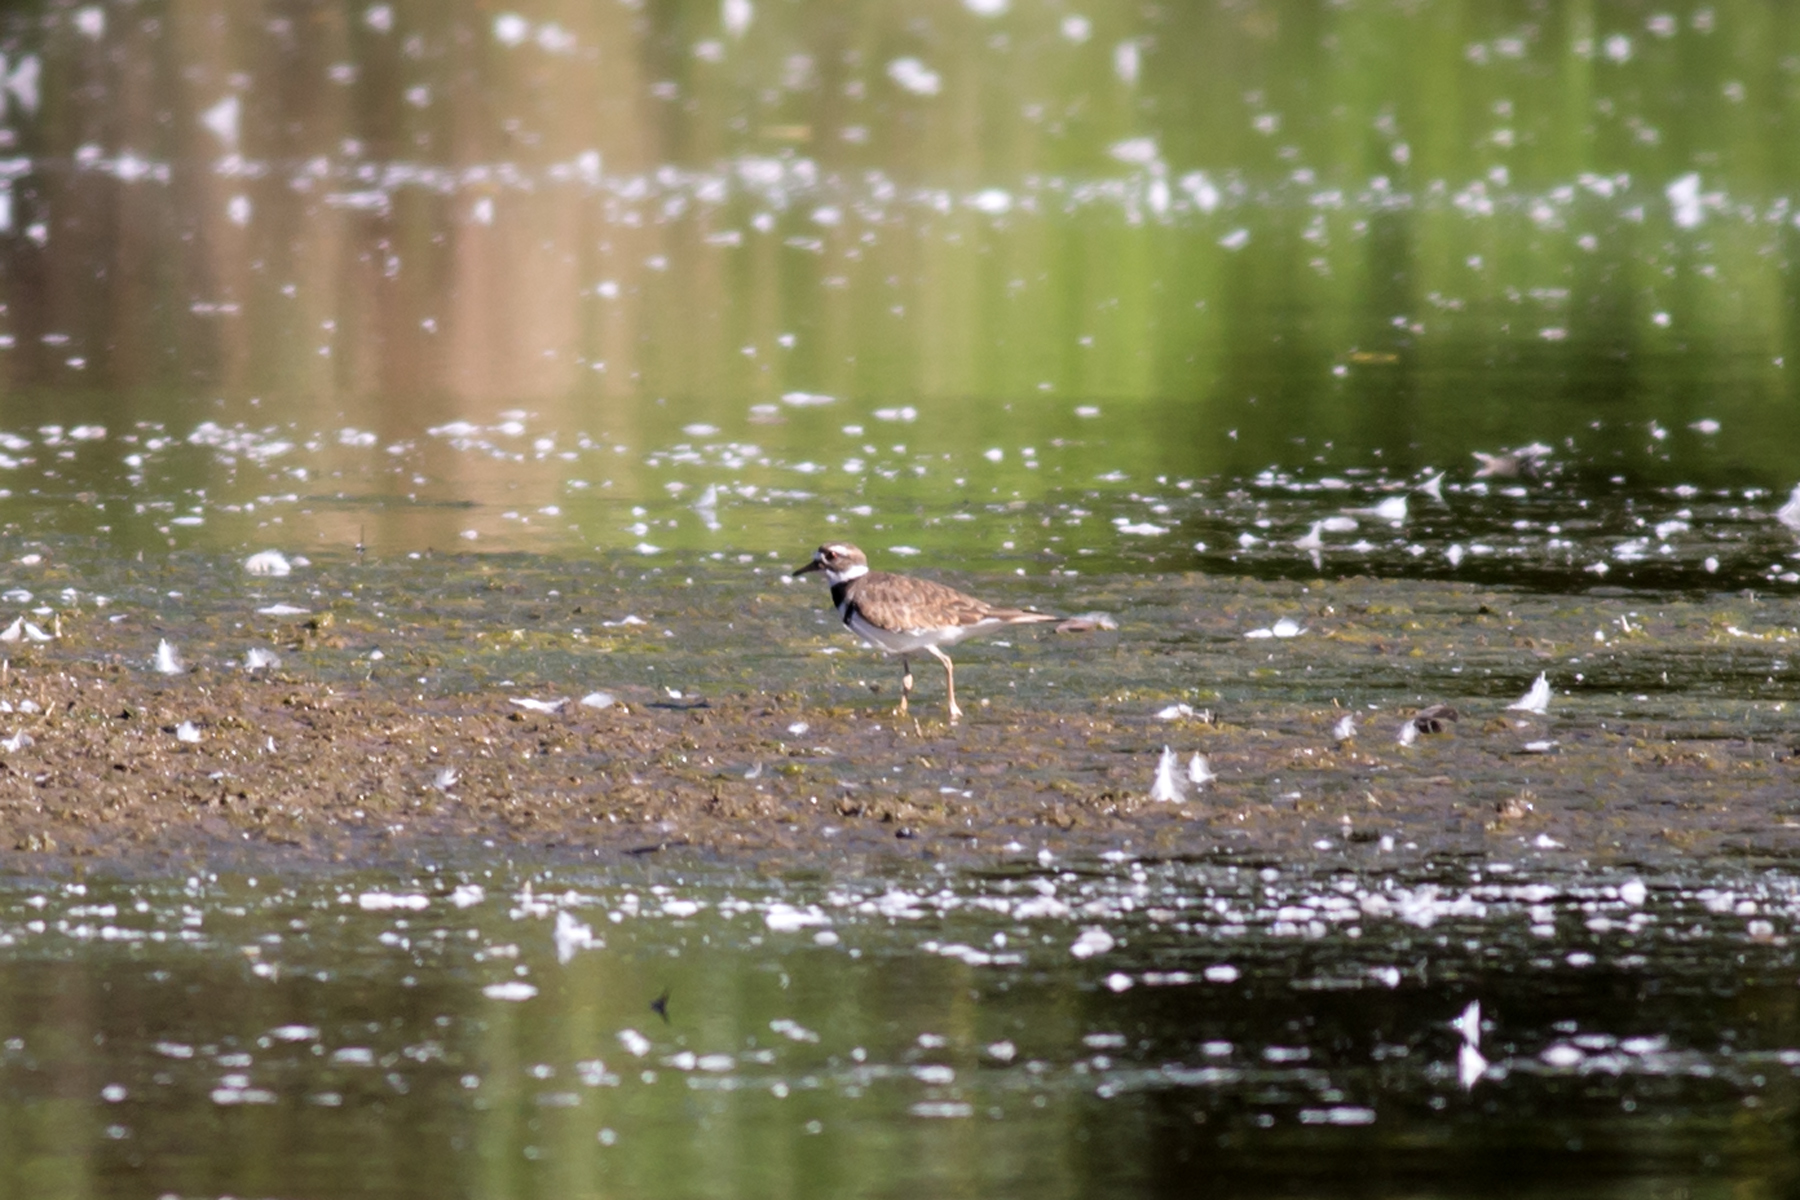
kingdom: Animalia
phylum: Chordata
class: Aves
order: Charadriiformes
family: Charadriidae
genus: Charadrius
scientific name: Charadrius vociferus
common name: Killdeer
